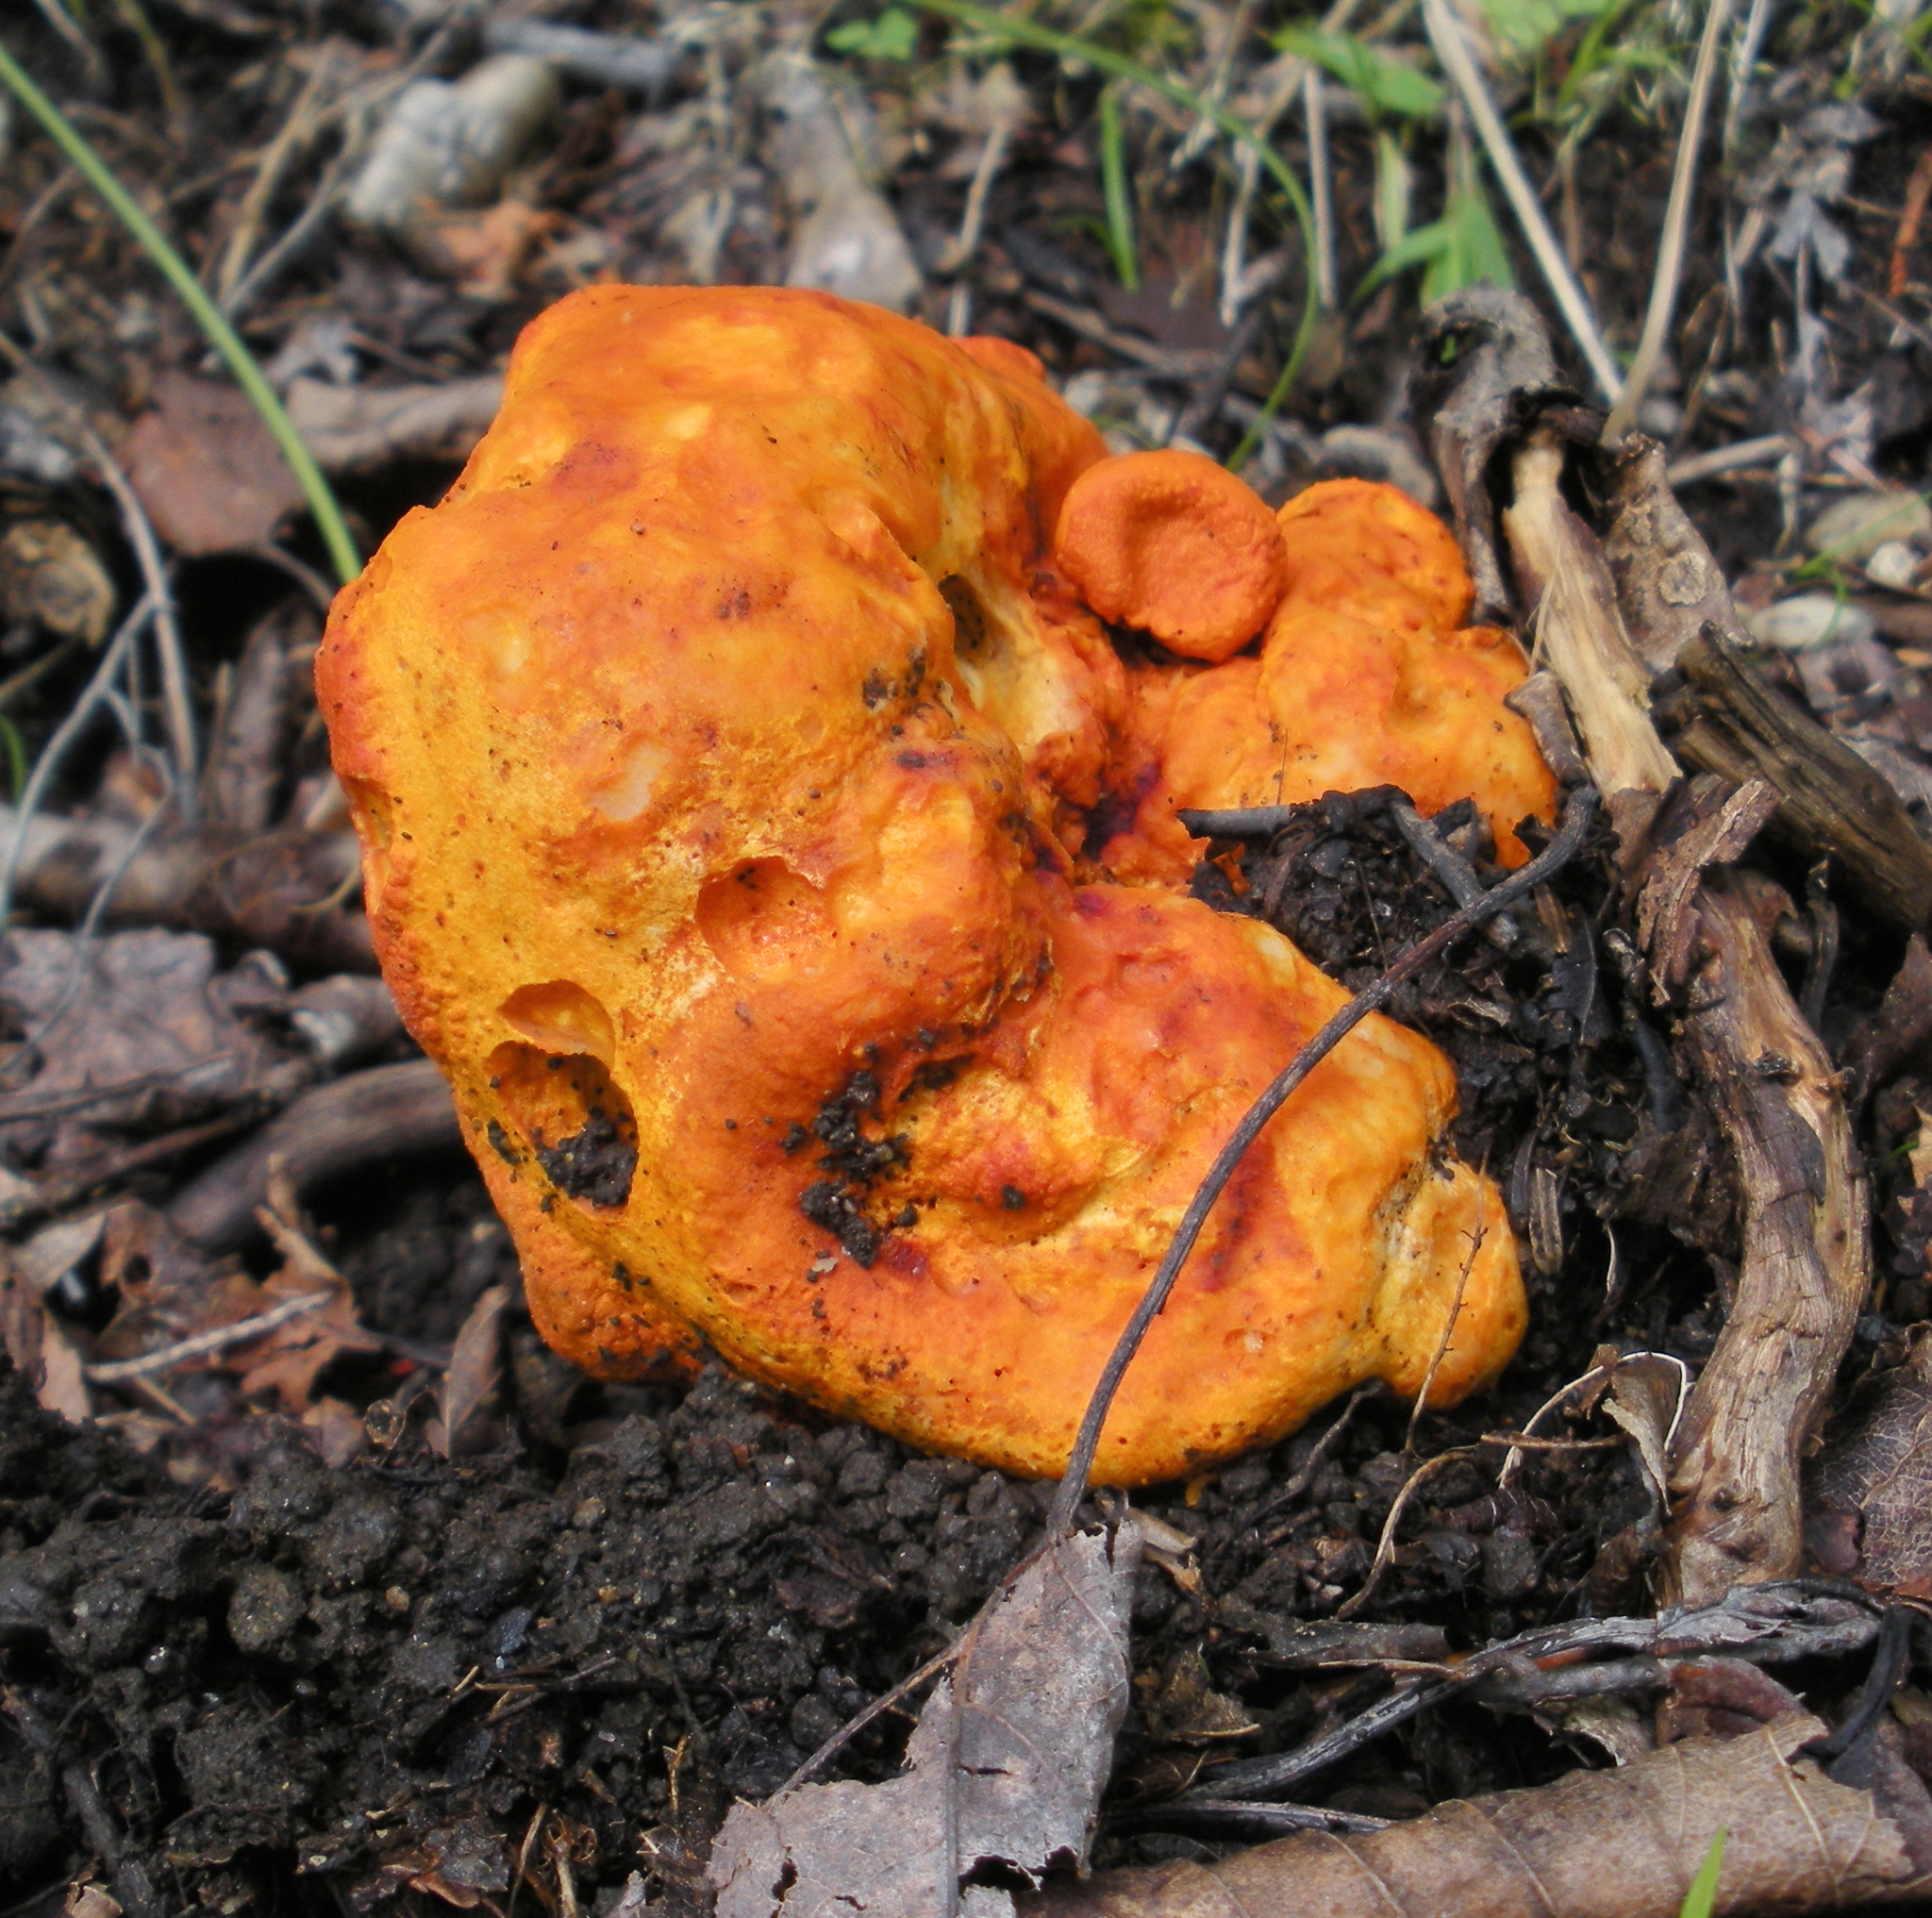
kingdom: Fungi
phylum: Ascomycota
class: Sordariomycetes
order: Hypocreales
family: Hypocreaceae
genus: Hypomyces
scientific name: Hypomyces lactifluorum
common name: Lobster mushroom
